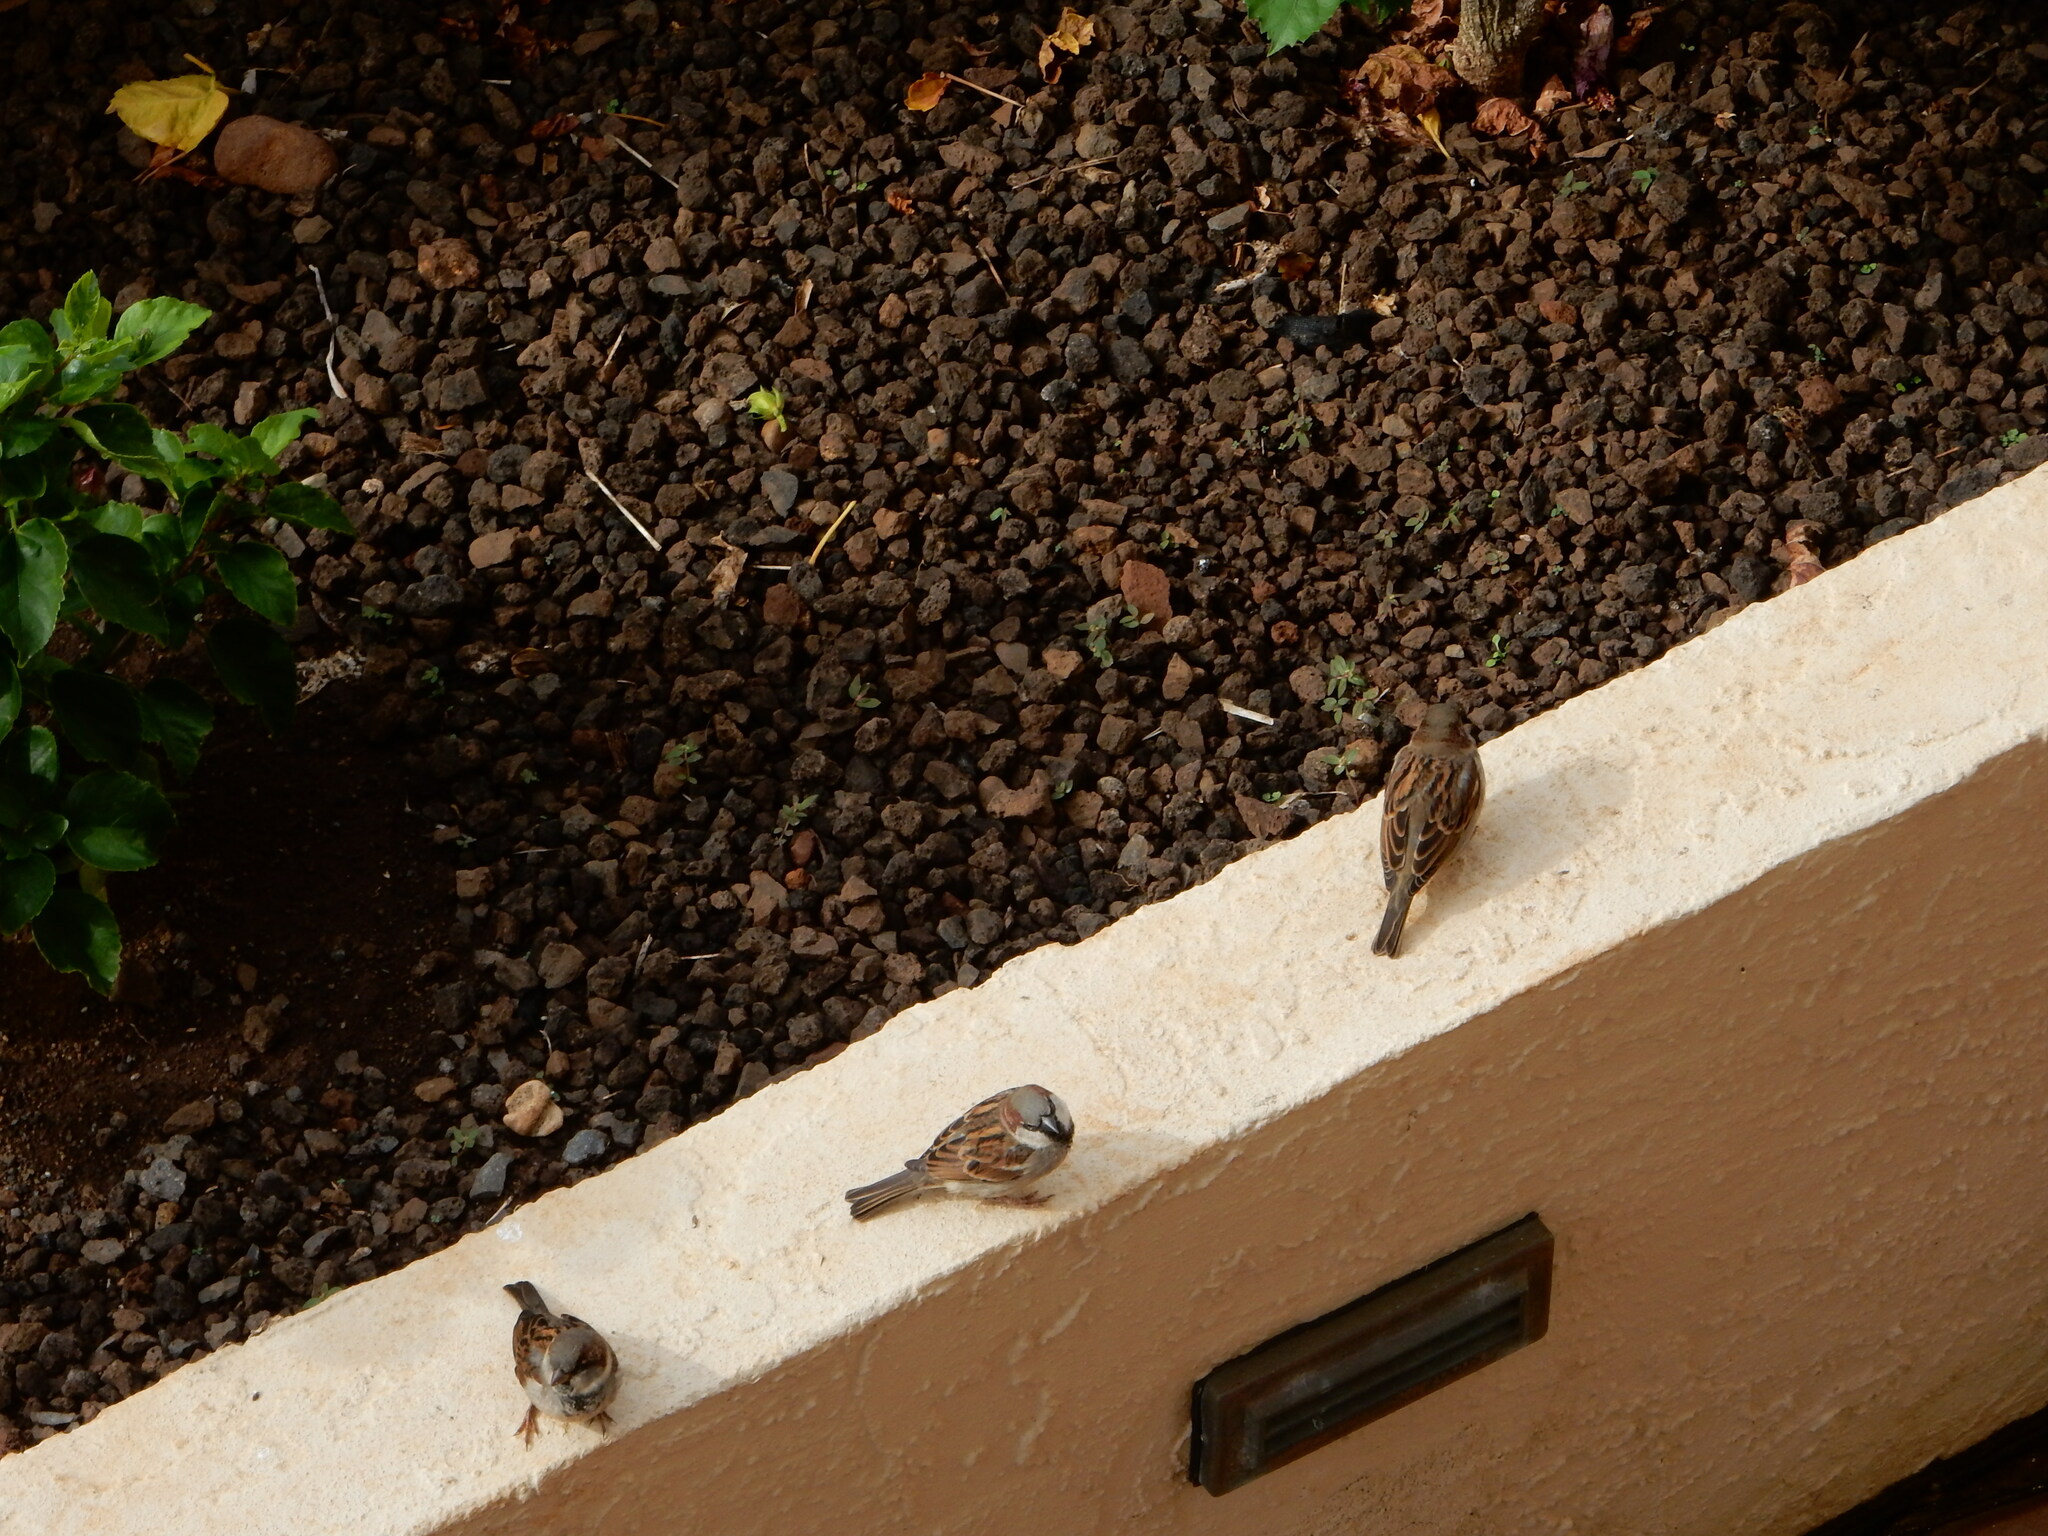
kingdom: Animalia
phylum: Chordata
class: Aves
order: Passeriformes
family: Passeridae
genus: Passer
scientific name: Passer domesticus
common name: House sparrow
